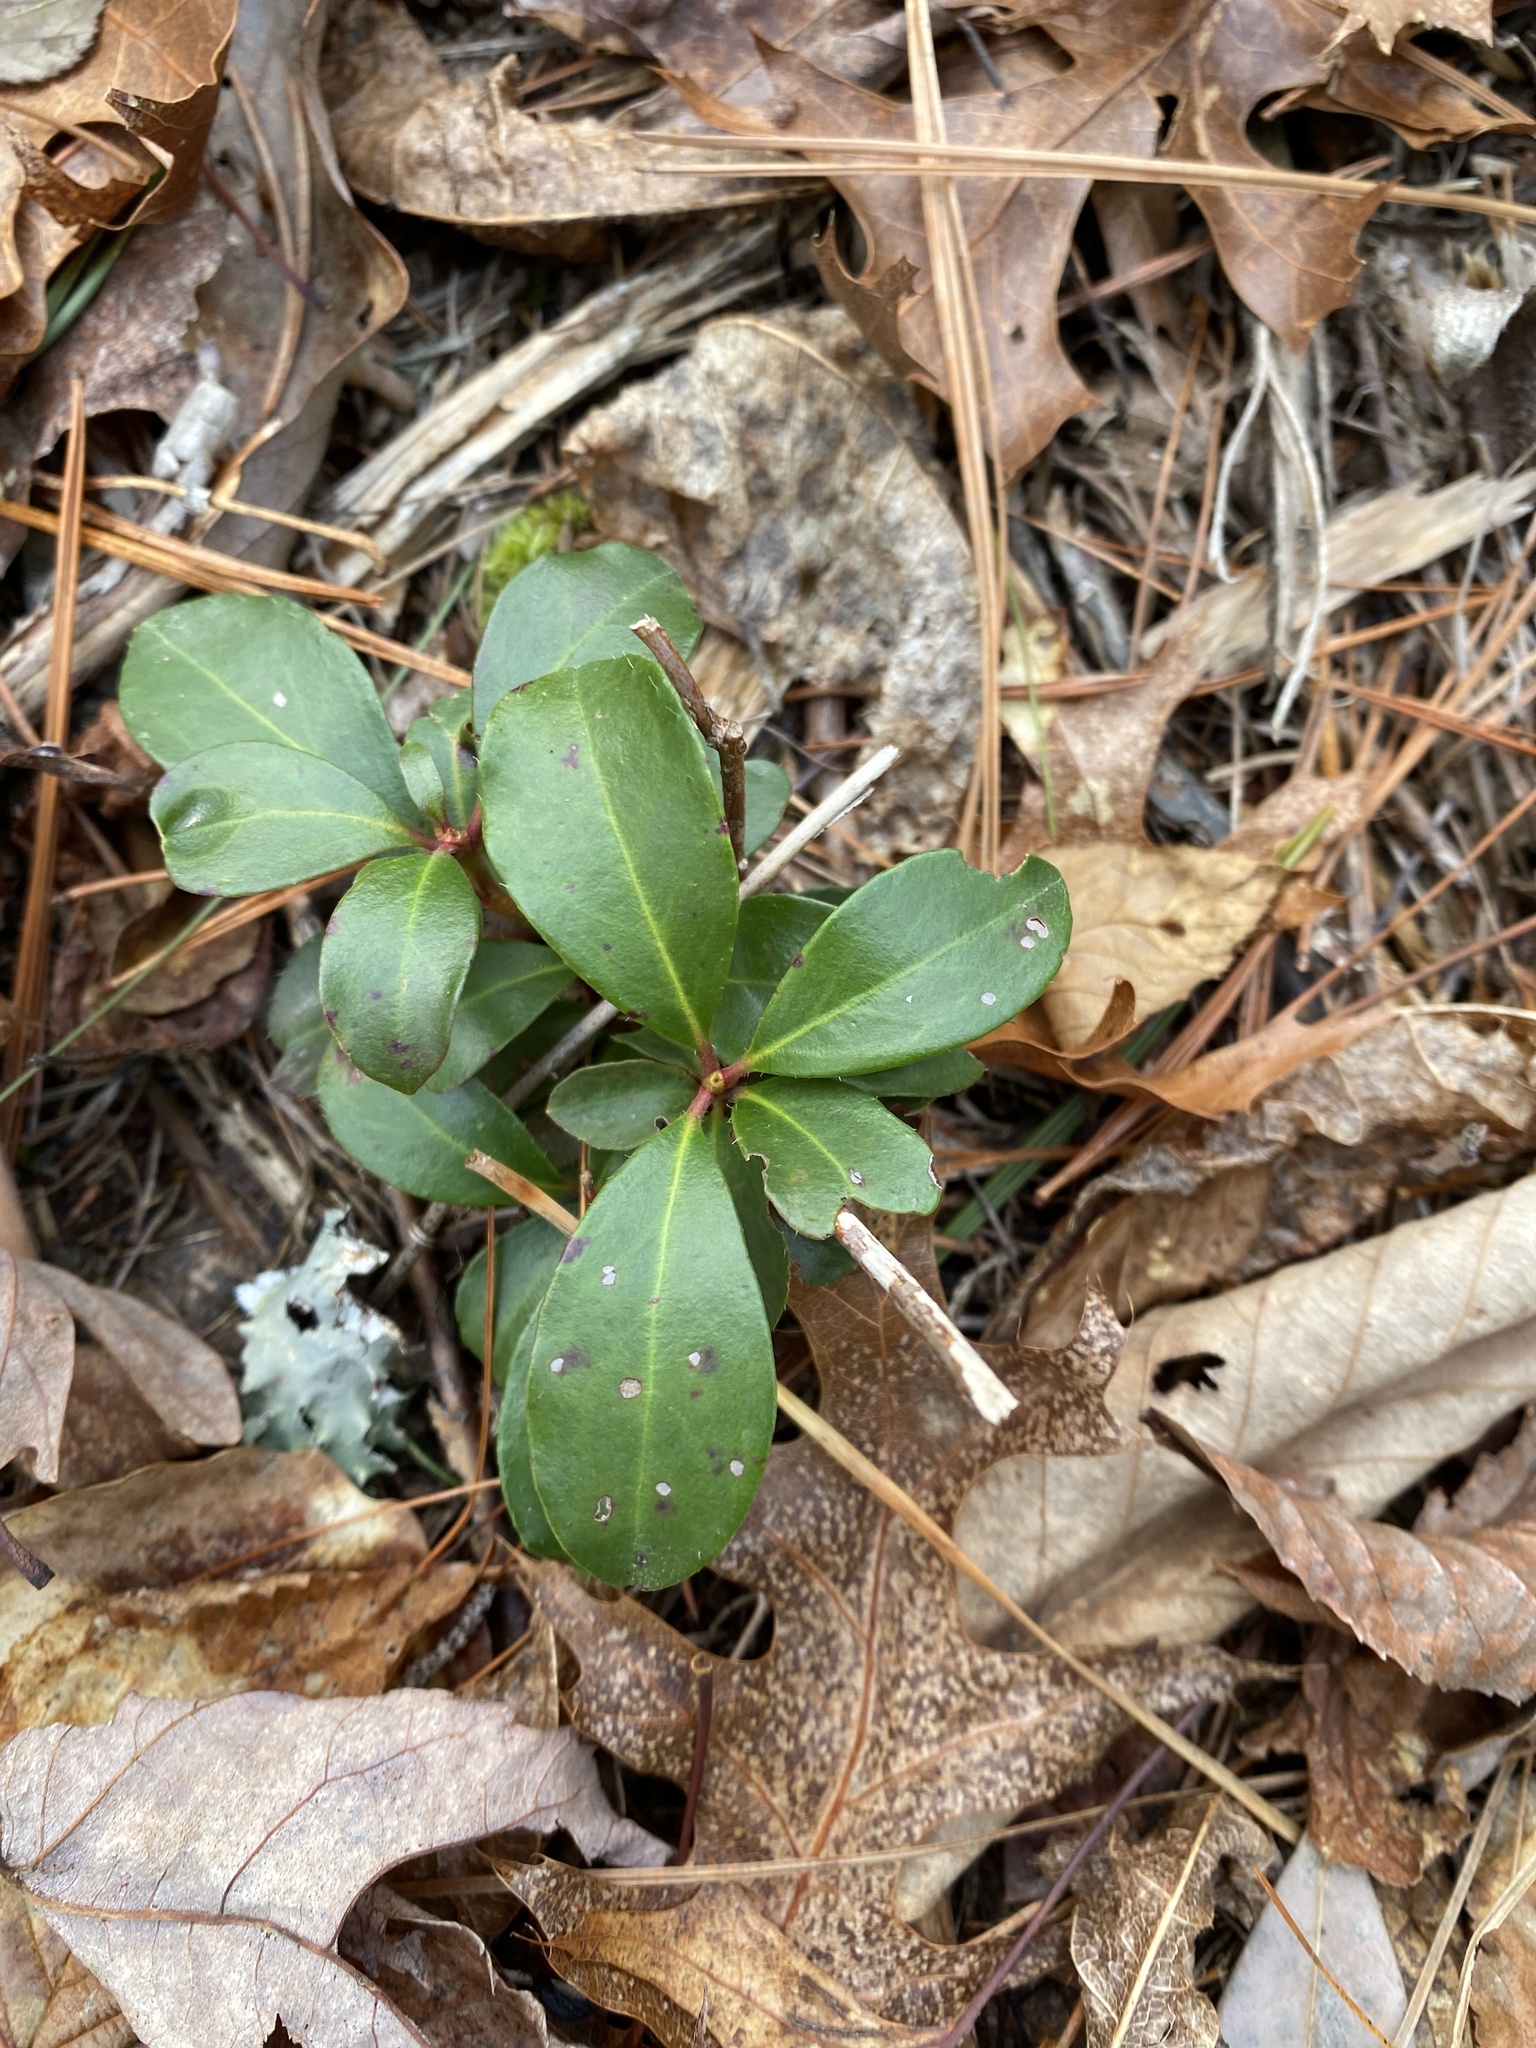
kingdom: Plantae
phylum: Tracheophyta
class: Magnoliopsida
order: Ericales
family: Ericaceae
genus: Gaultheria
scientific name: Gaultheria procumbens
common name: Checkerberry
